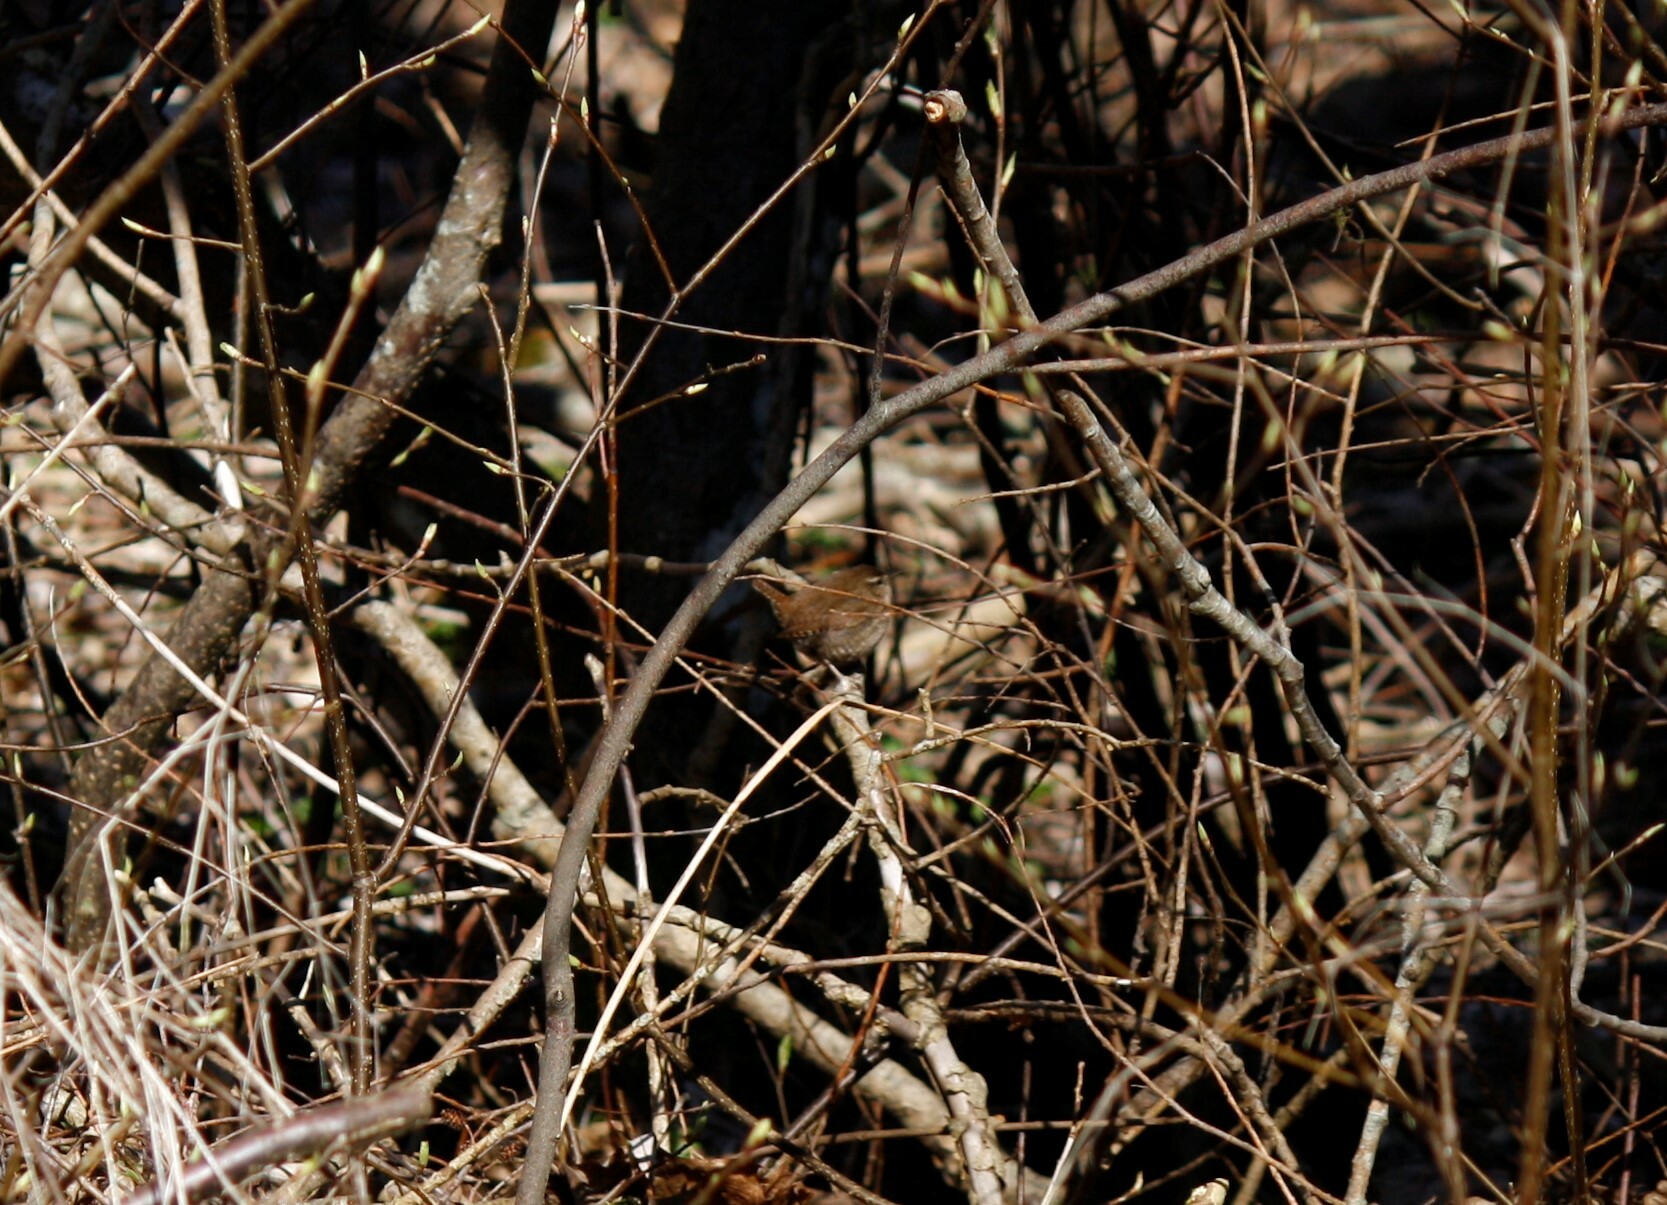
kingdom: Animalia
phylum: Chordata
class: Aves
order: Passeriformes
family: Troglodytidae
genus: Troglodytes
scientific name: Troglodytes troglodytes
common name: Eurasian wren
